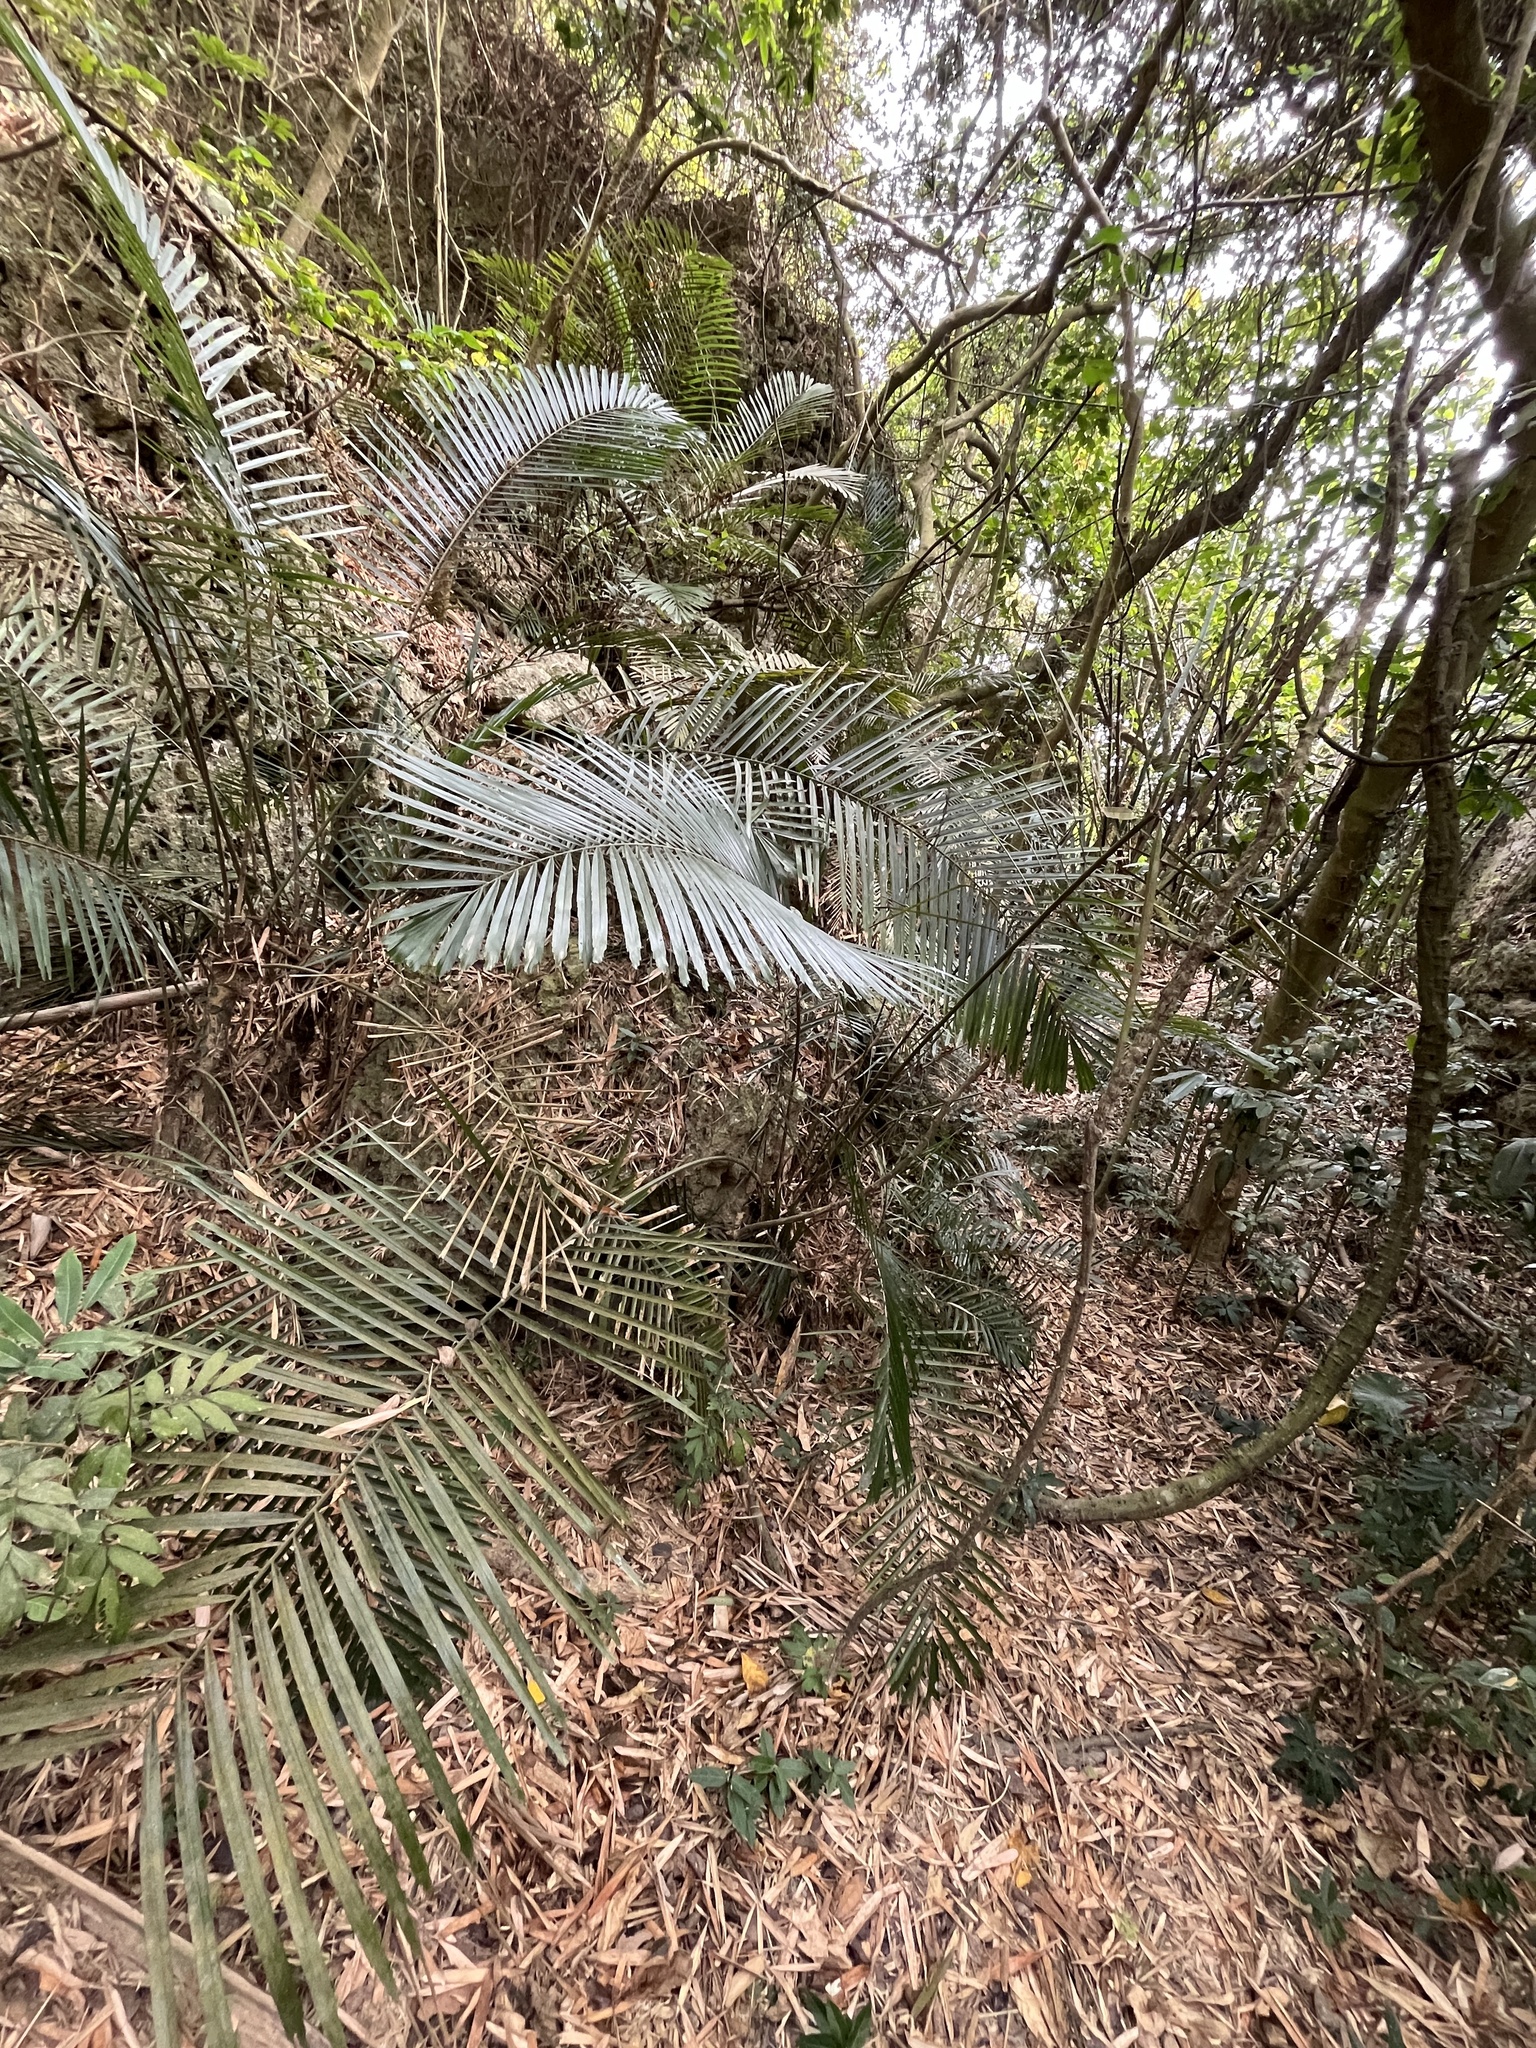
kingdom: Plantae
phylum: Tracheophyta
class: Liliopsida
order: Arecales
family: Arecaceae
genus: Arenga
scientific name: Arenga engleri
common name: Formosan sugar palm
